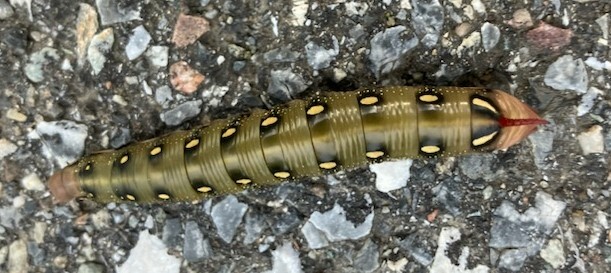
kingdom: Animalia
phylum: Arthropoda
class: Insecta
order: Lepidoptera
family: Sphingidae
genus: Hyles
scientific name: Hyles gallii
